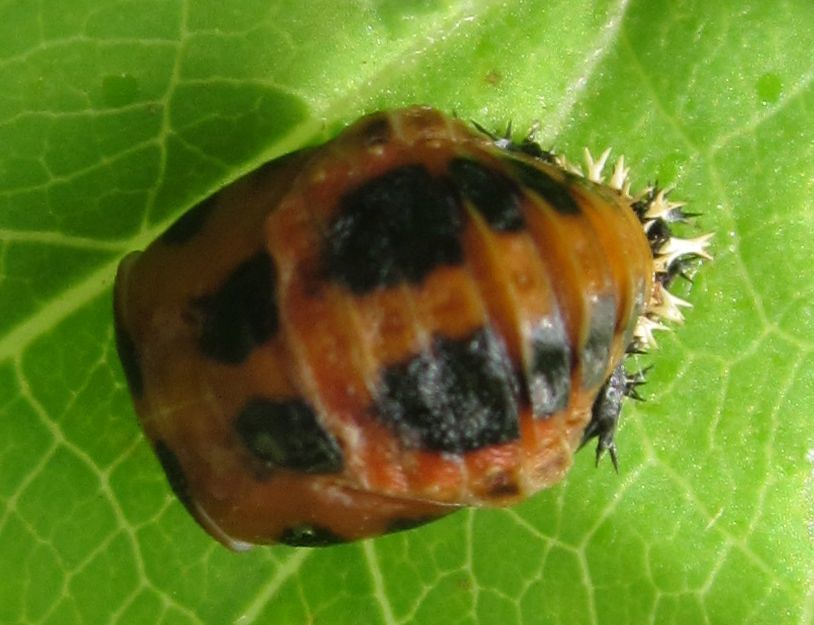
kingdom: Animalia
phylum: Arthropoda
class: Insecta
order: Coleoptera
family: Coccinellidae
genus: Harmonia
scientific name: Harmonia axyridis
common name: Harlequin ladybird
